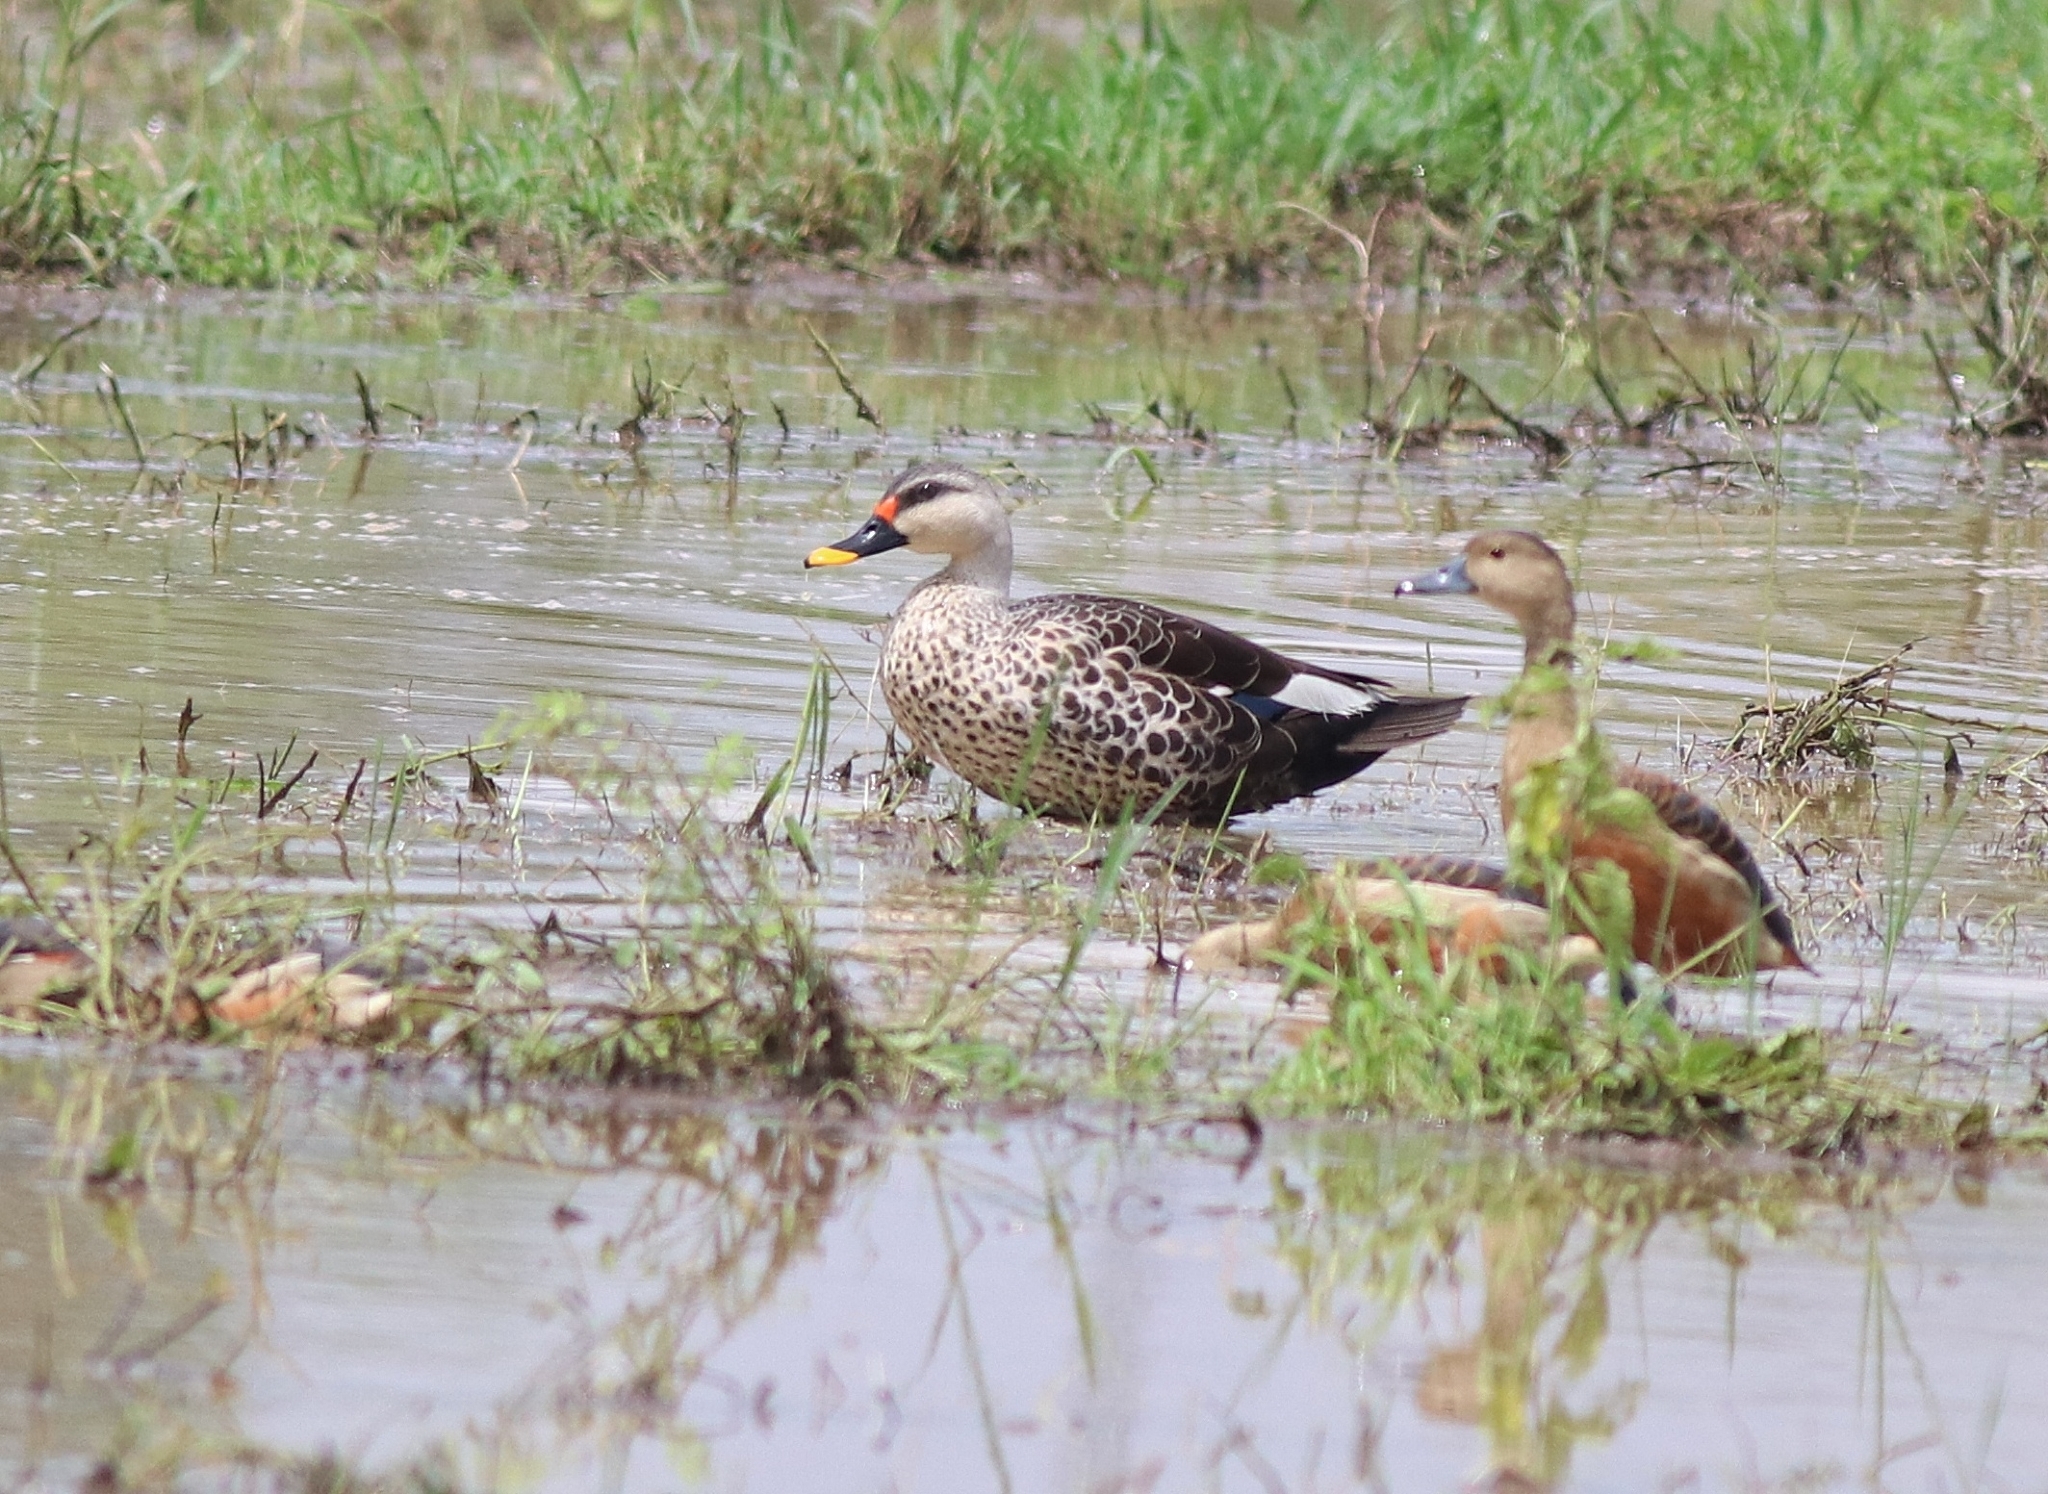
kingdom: Animalia
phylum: Chordata
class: Aves
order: Anseriformes
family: Anatidae
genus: Anas
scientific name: Anas poecilorhyncha
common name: Indian spot-billed duck
